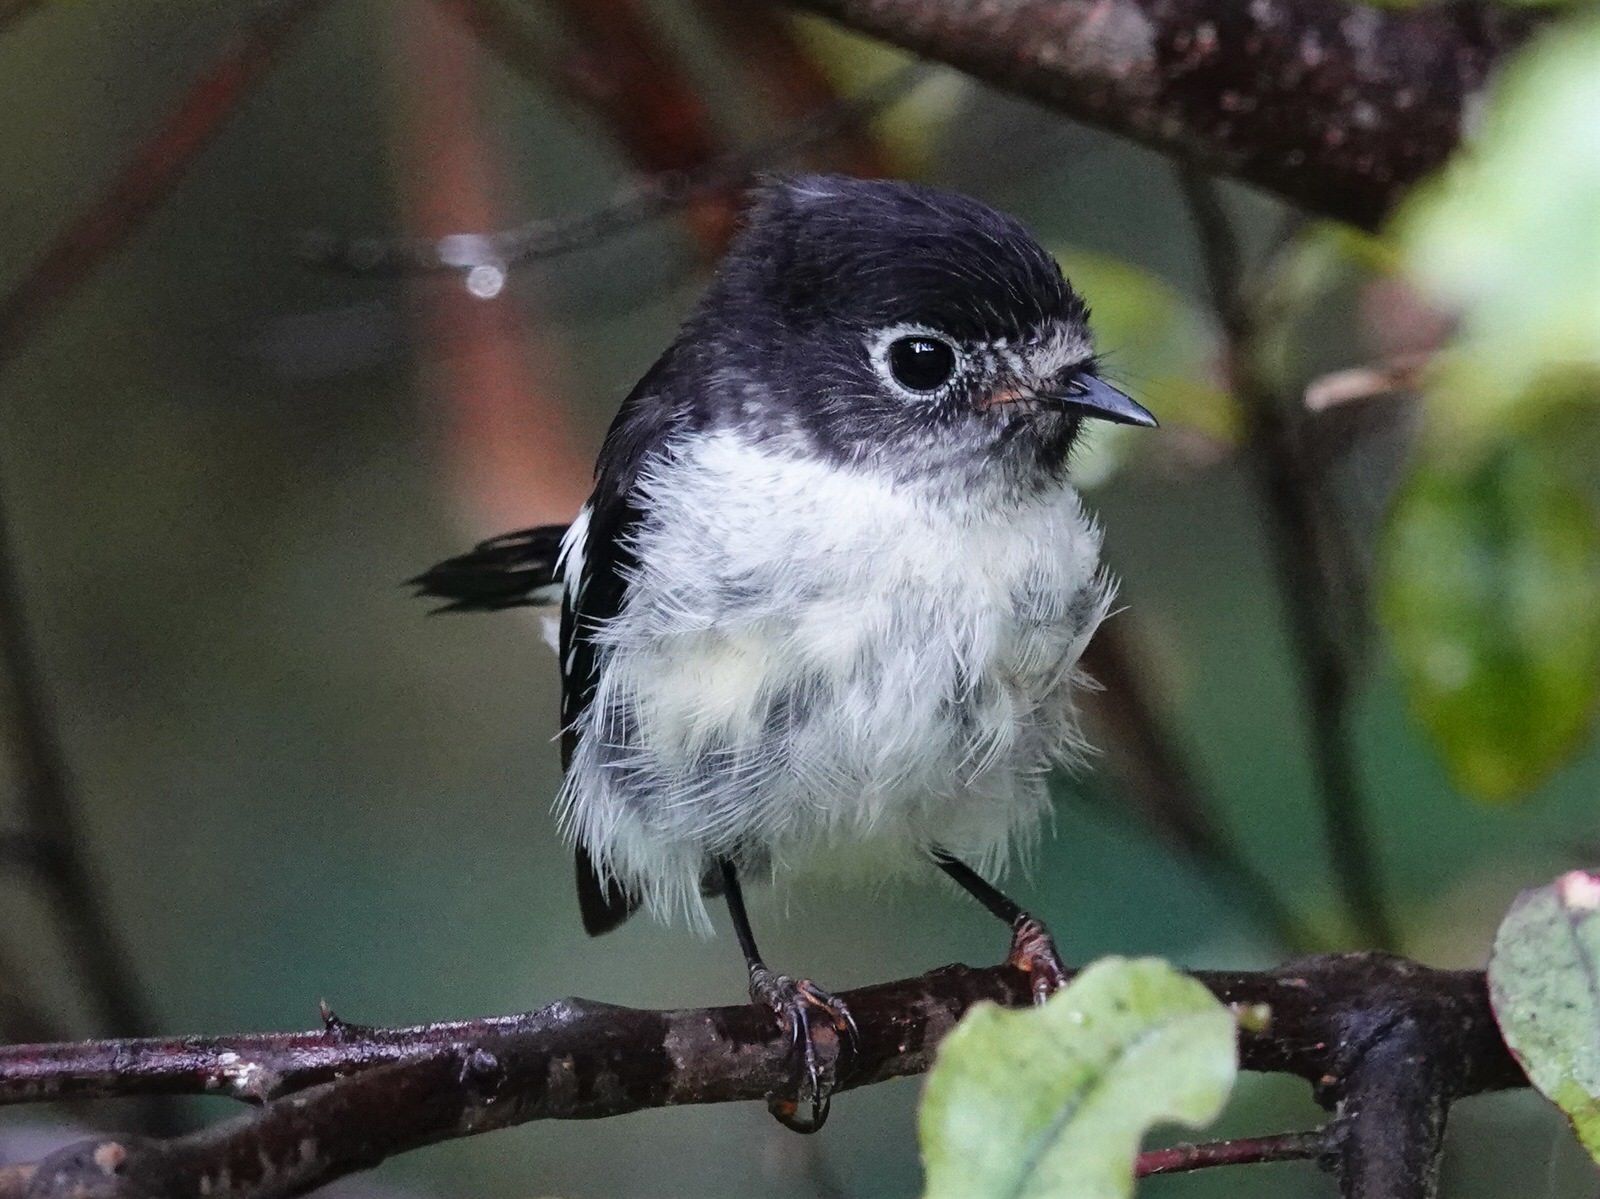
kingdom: Animalia
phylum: Chordata
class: Aves
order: Passeriformes
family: Petroicidae
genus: Petroica
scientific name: Petroica macrocephala
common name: Tomtit
